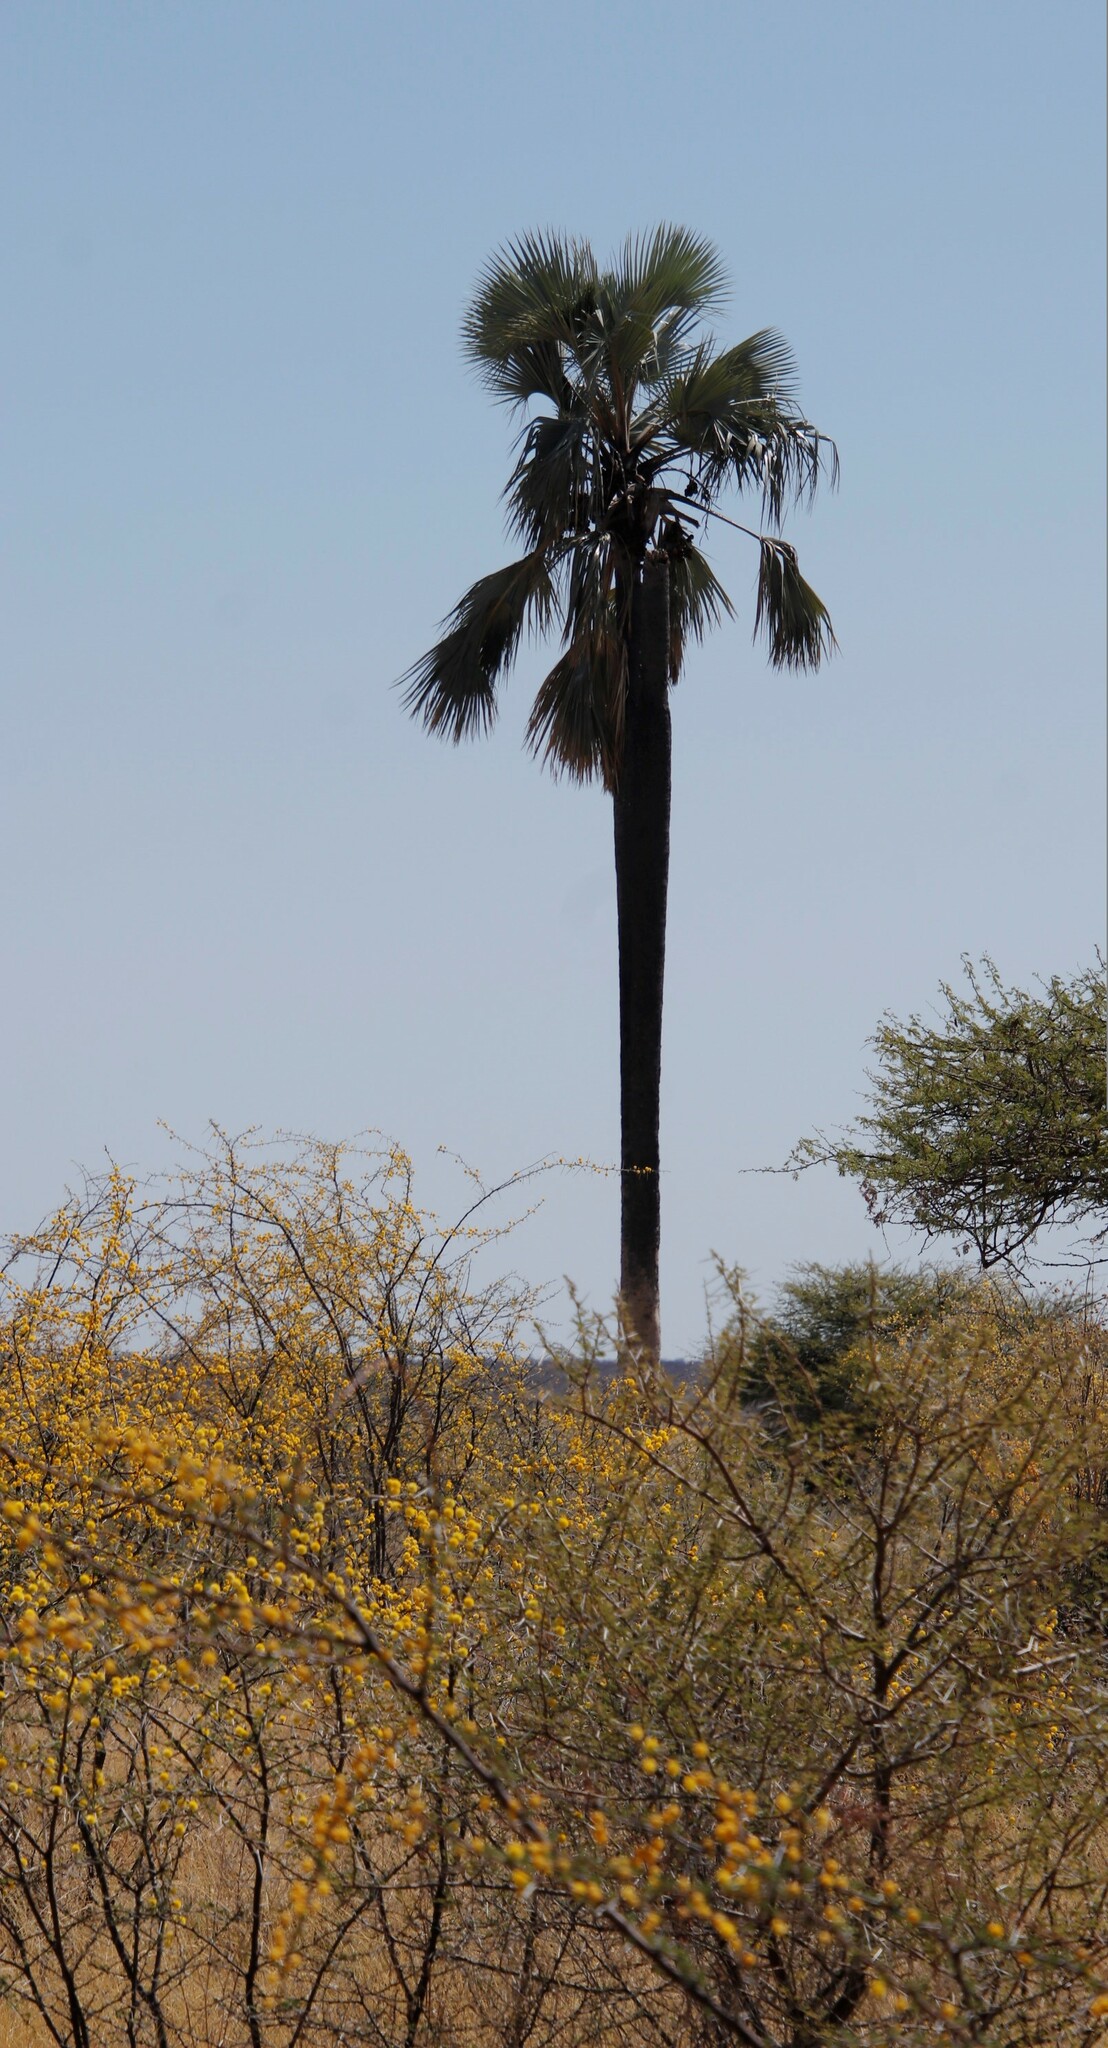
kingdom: Plantae
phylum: Tracheophyta
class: Liliopsida
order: Arecales
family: Arecaceae
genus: Hyphaene
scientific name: Hyphaene petersiana
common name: African ivory nut palm
